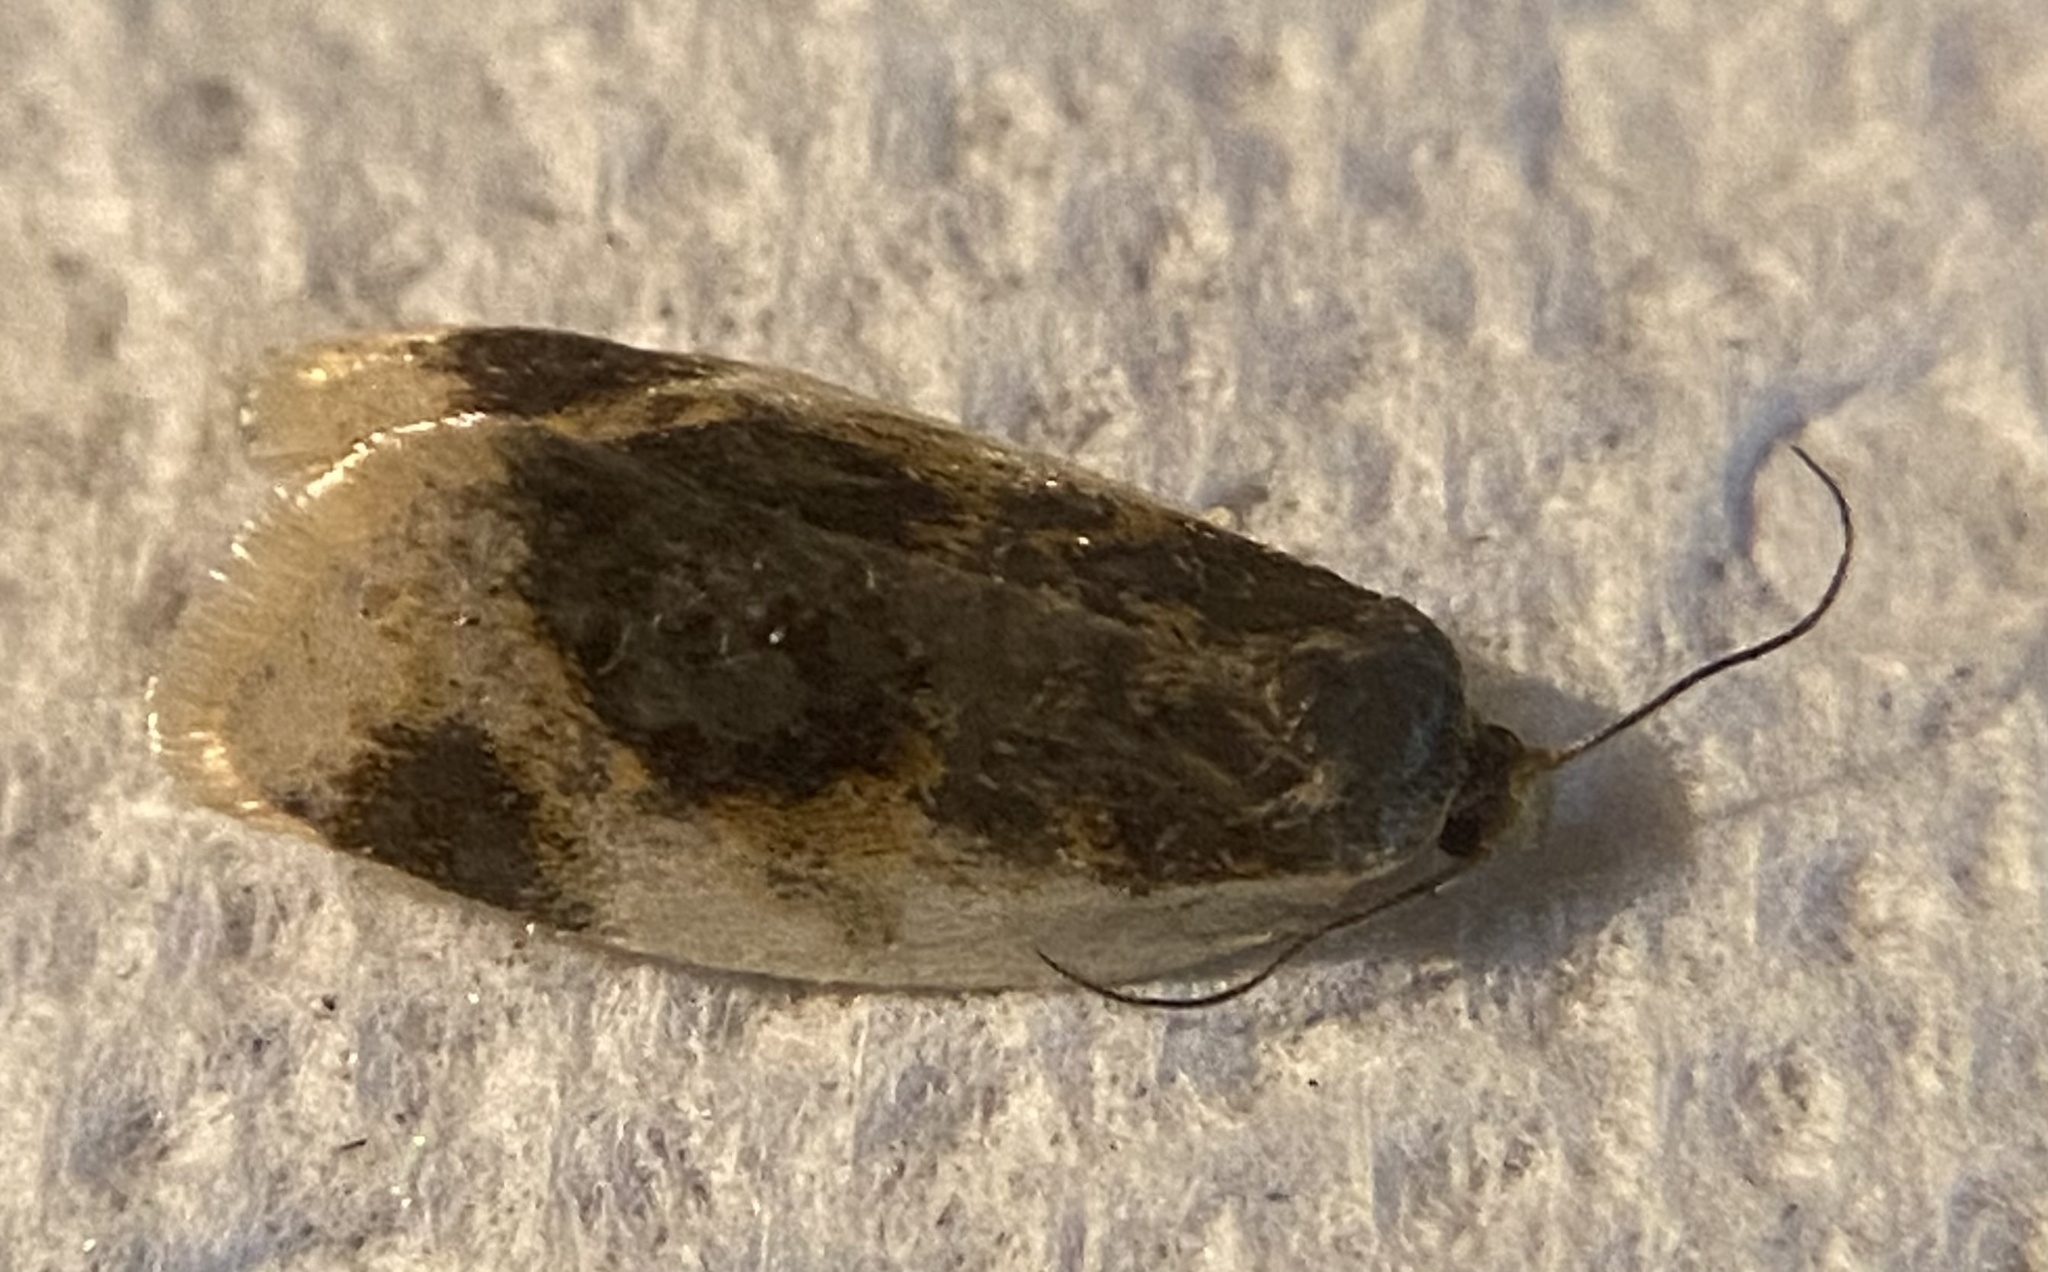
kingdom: Animalia
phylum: Arthropoda
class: Insecta
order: Lepidoptera
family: Tortricidae
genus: Clepsis
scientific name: Clepsis melaleucanus
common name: American apple tortrix
